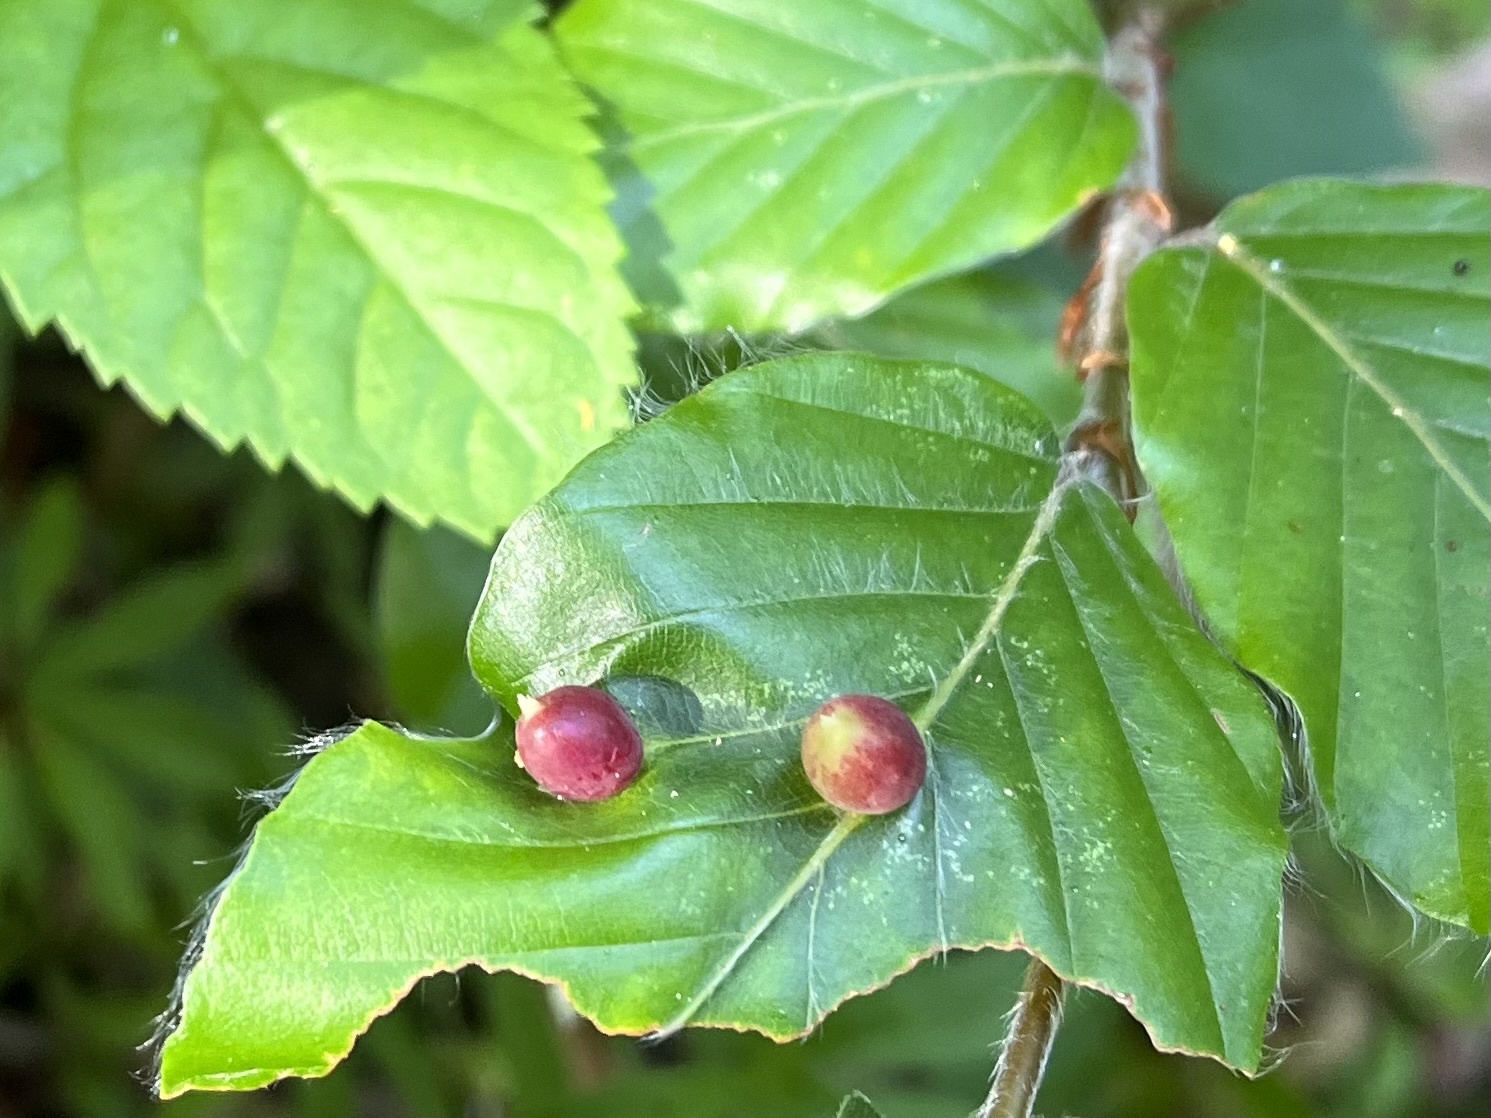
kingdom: Animalia
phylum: Arthropoda
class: Insecta
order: Diptera
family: Cecidomyiidae
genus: Mikiola
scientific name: Mikiola fagi
